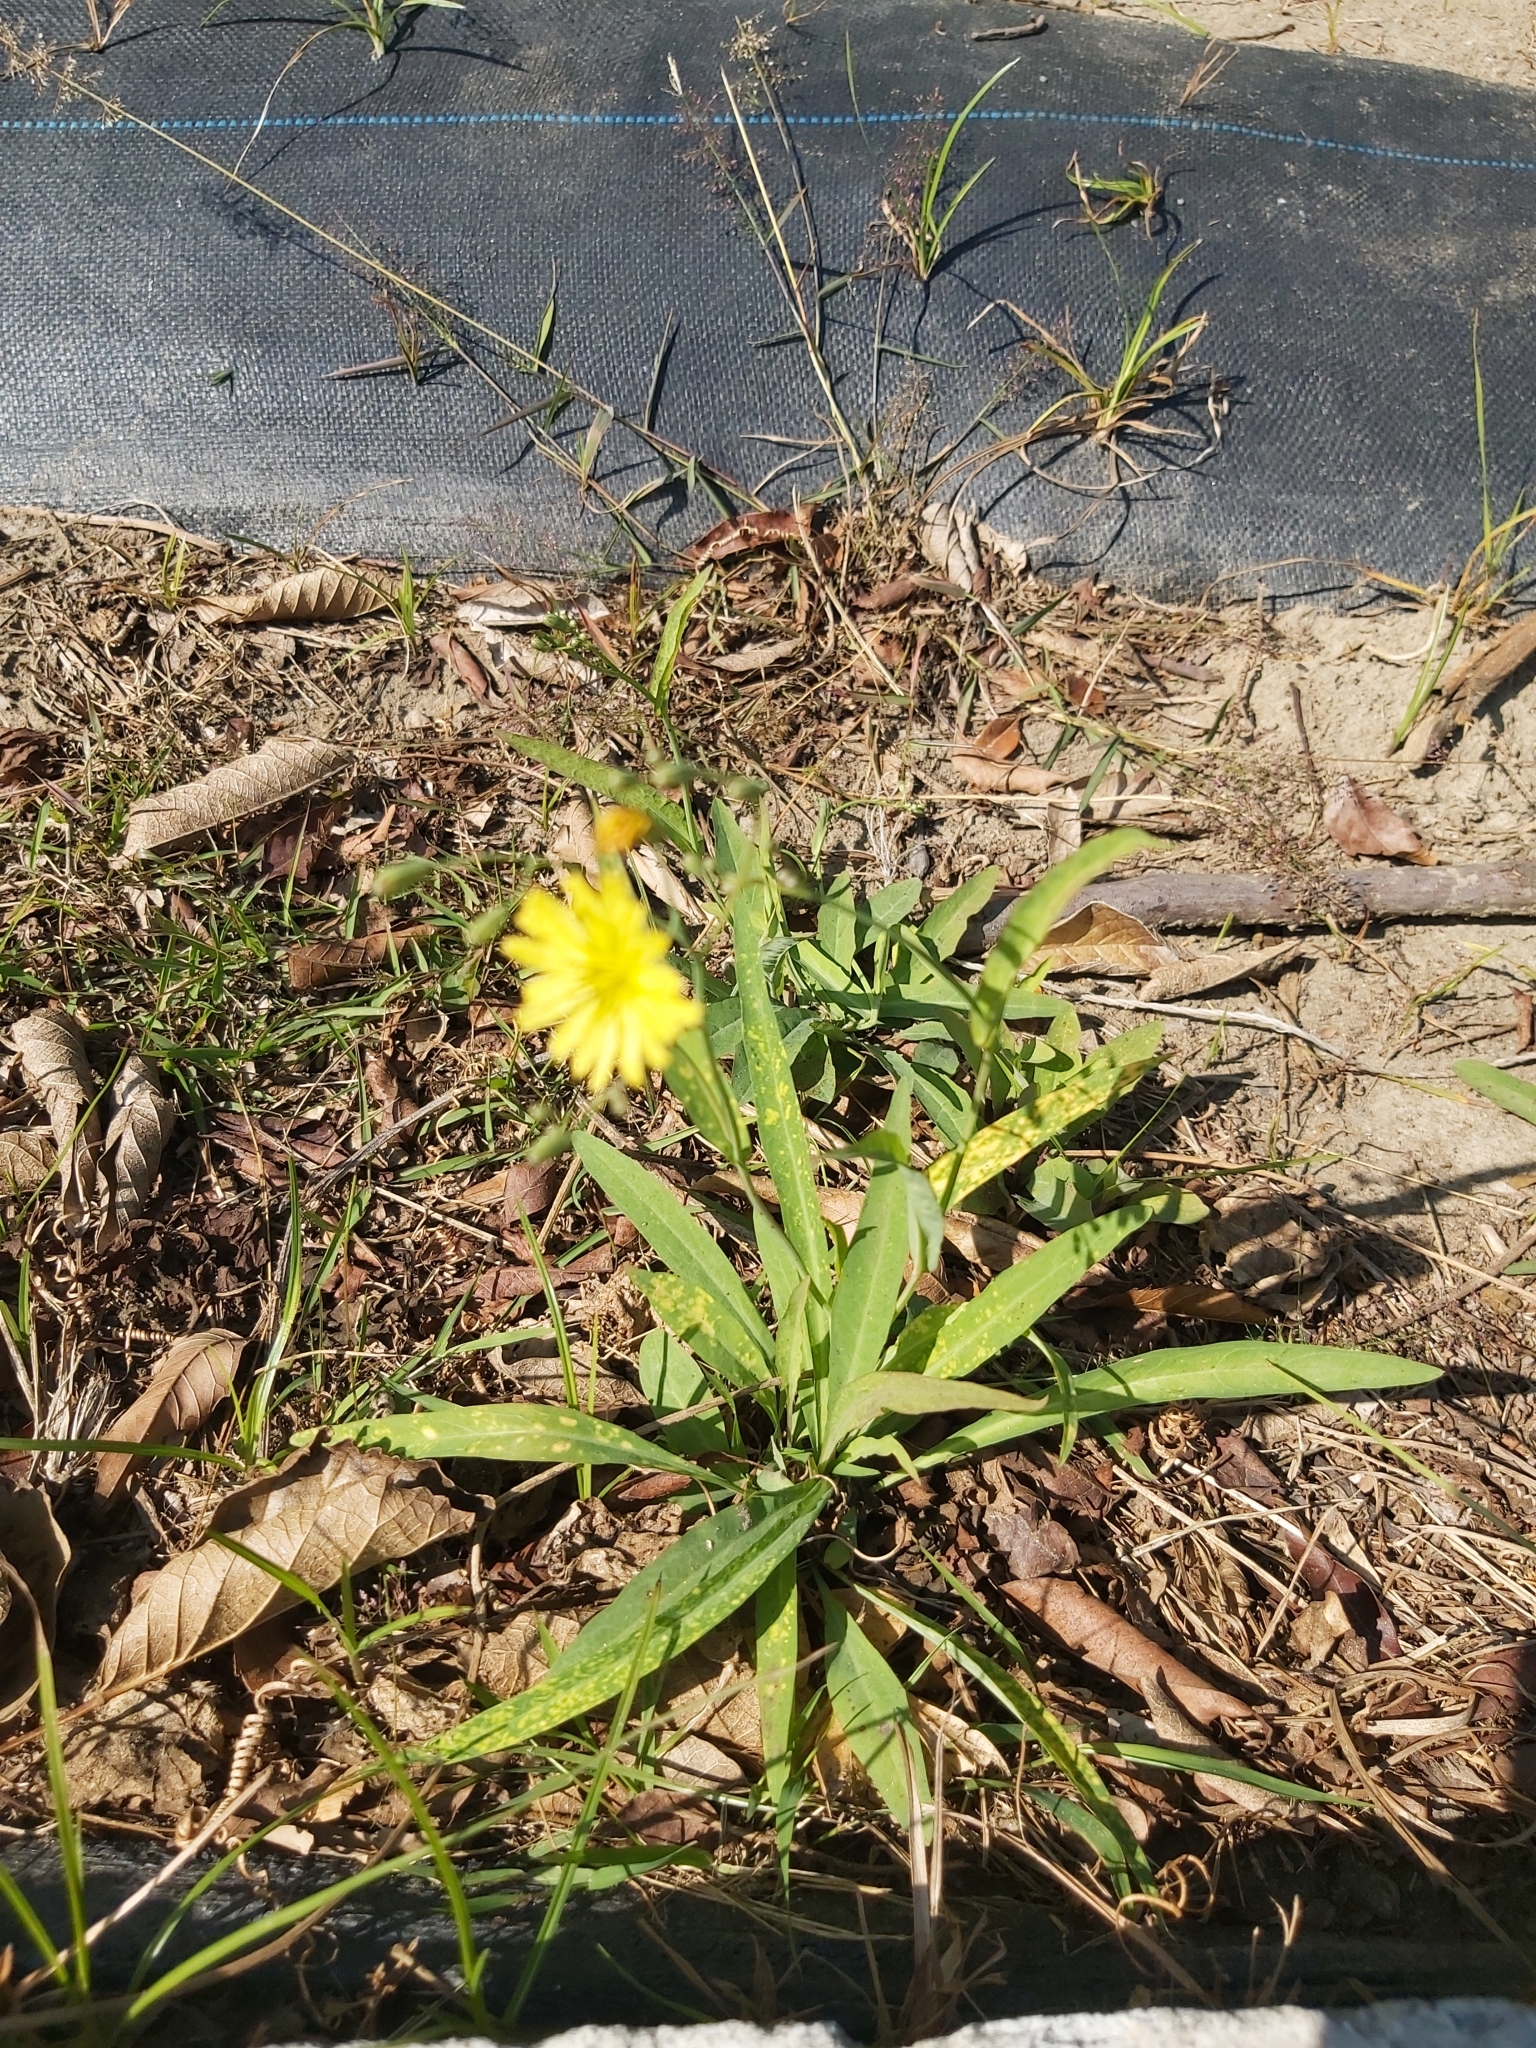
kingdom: Plantae
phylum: Tracheophyta
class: Magnoliopsida
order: Asterales
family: Asteraceae
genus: Ixeris
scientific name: Ixeris chinensis
